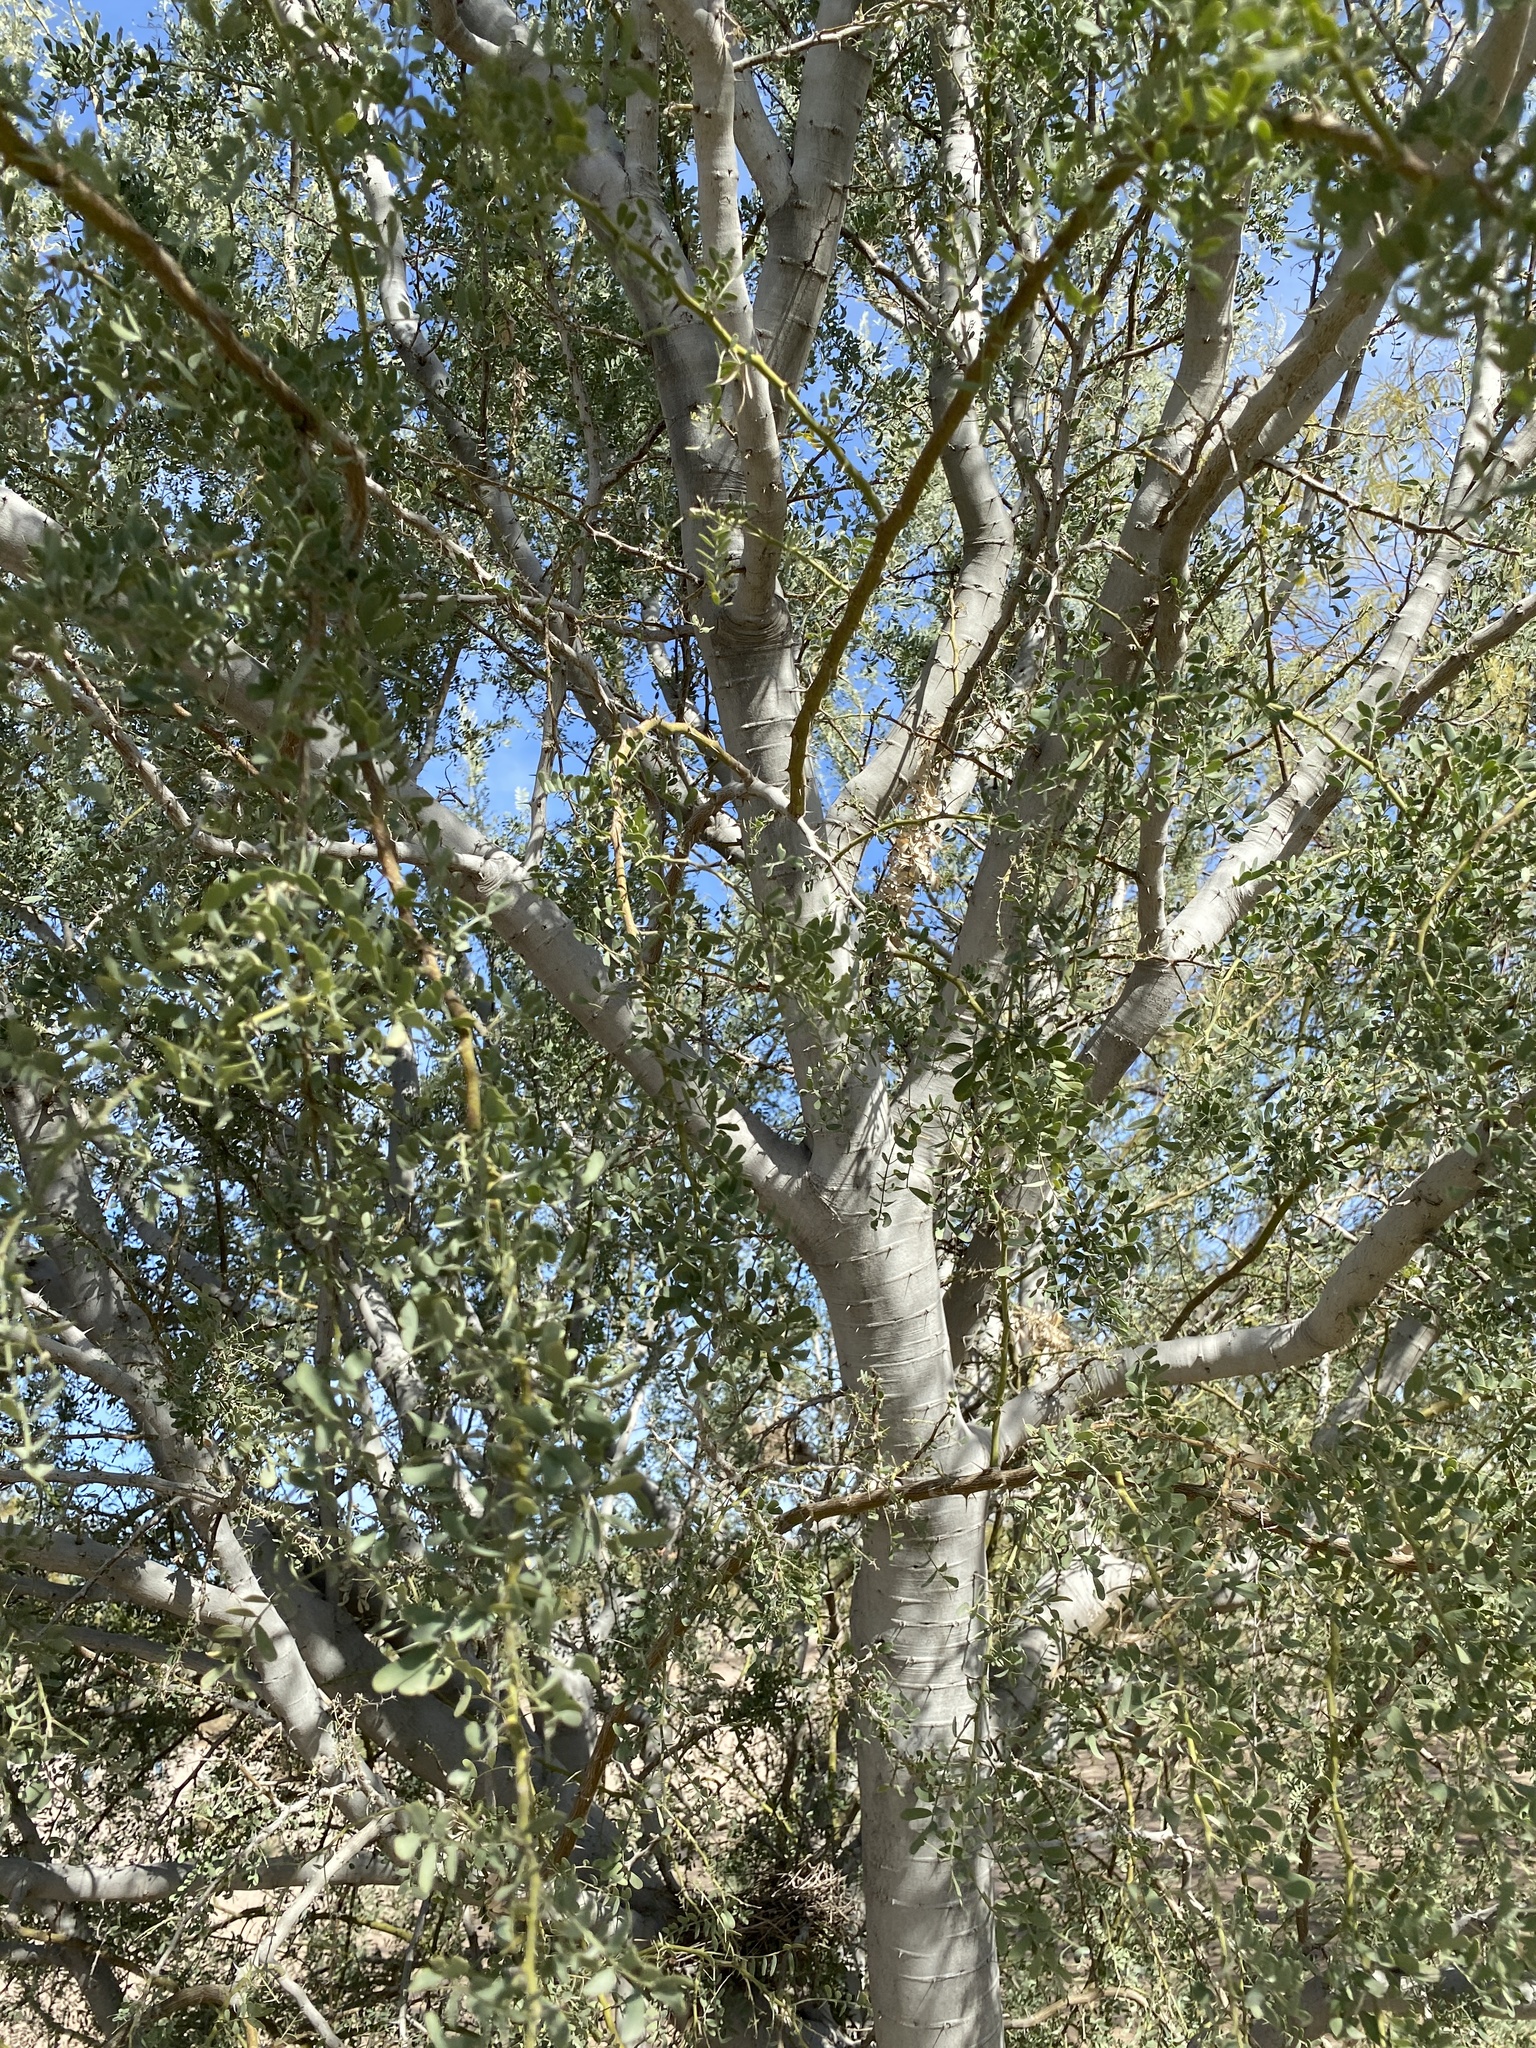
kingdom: Plantae
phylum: Tracheophyta
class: Magnoliopsida
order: Fabales
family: Fabaceae
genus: Olneya
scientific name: Olneya tesota
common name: Desert ironwood
